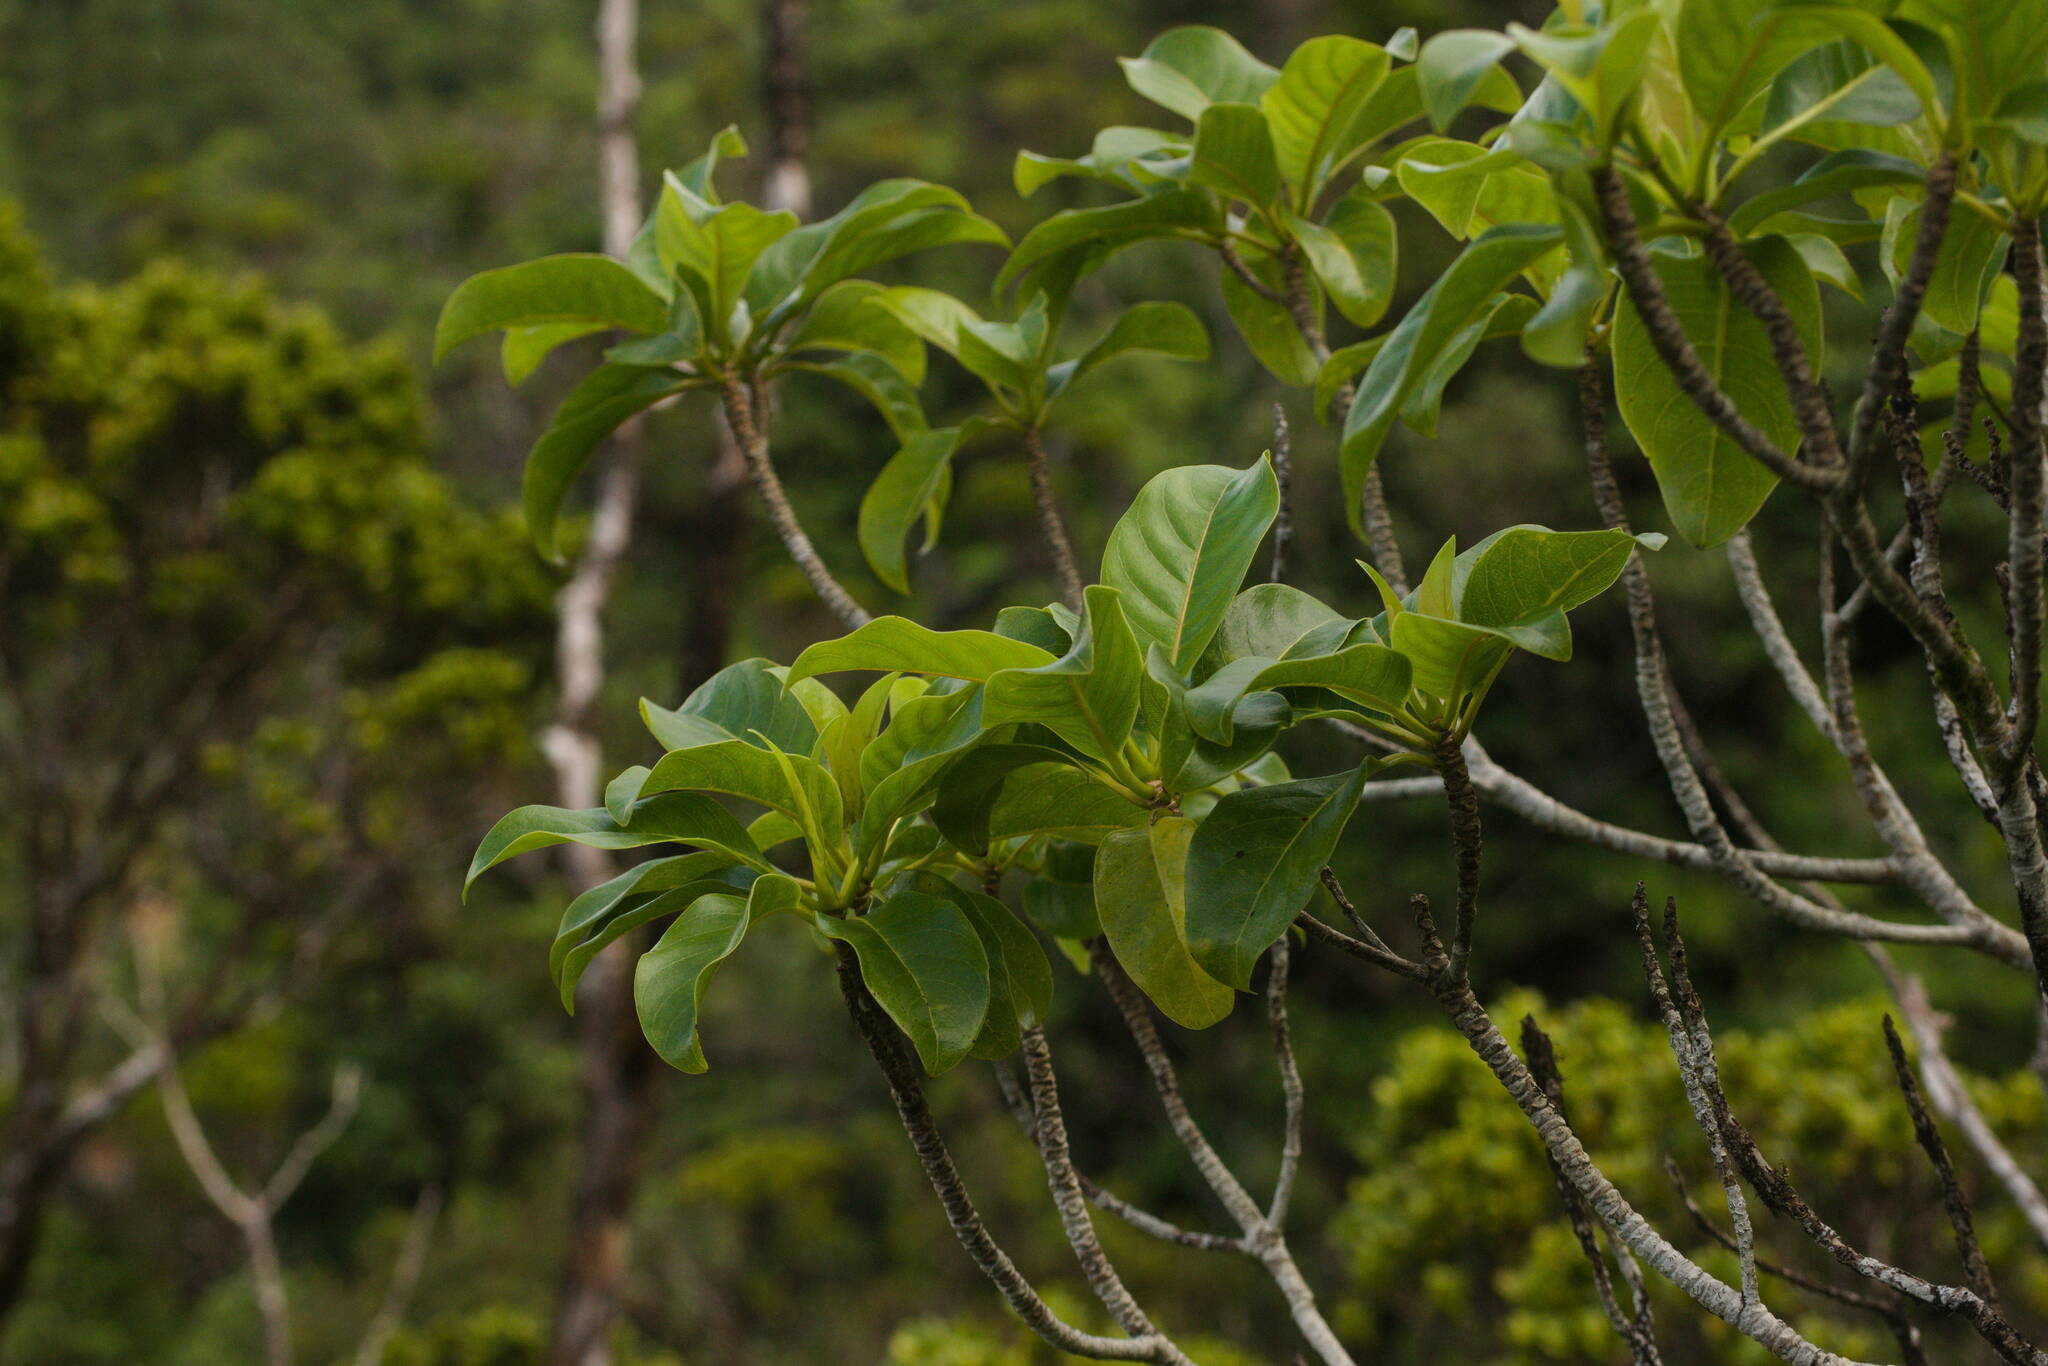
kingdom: Plantae
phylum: Tracheophyta
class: Magnoliopsida
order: Gentianales
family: Rubiaceae
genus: Bobea
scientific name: Bobea gaudichaudii
